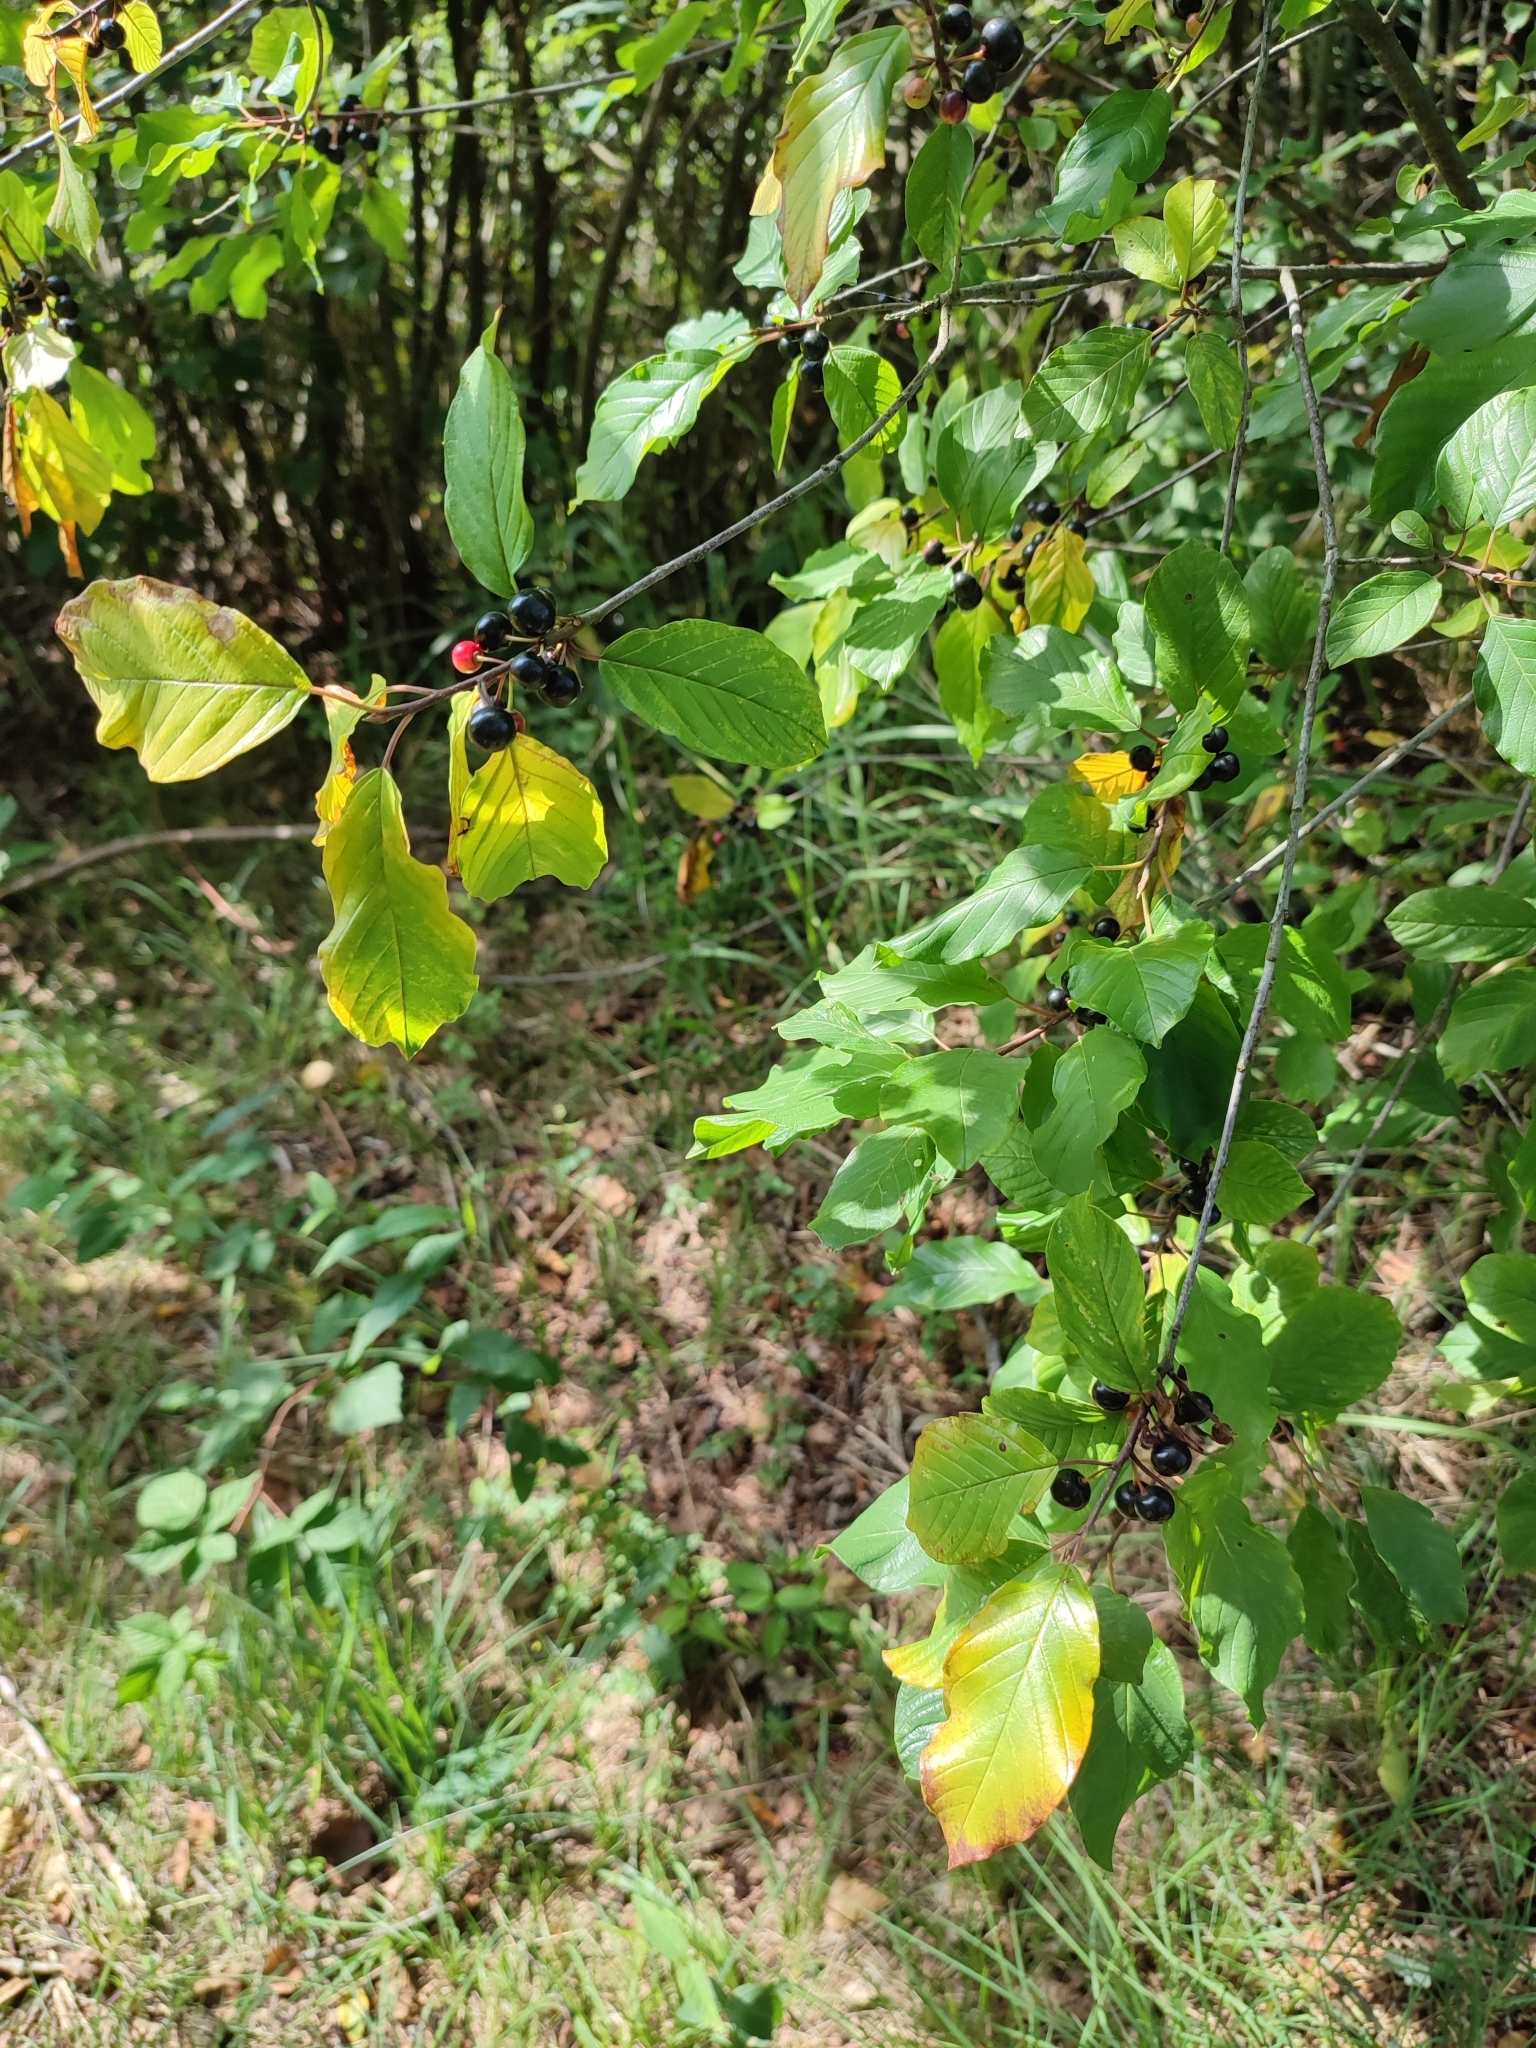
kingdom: Plantae
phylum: Tracheophyta
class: Magnoliopsida
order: Rosales
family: Rhamnaceae
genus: Frangula
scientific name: Frangula alnus
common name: Alder buckthorn
